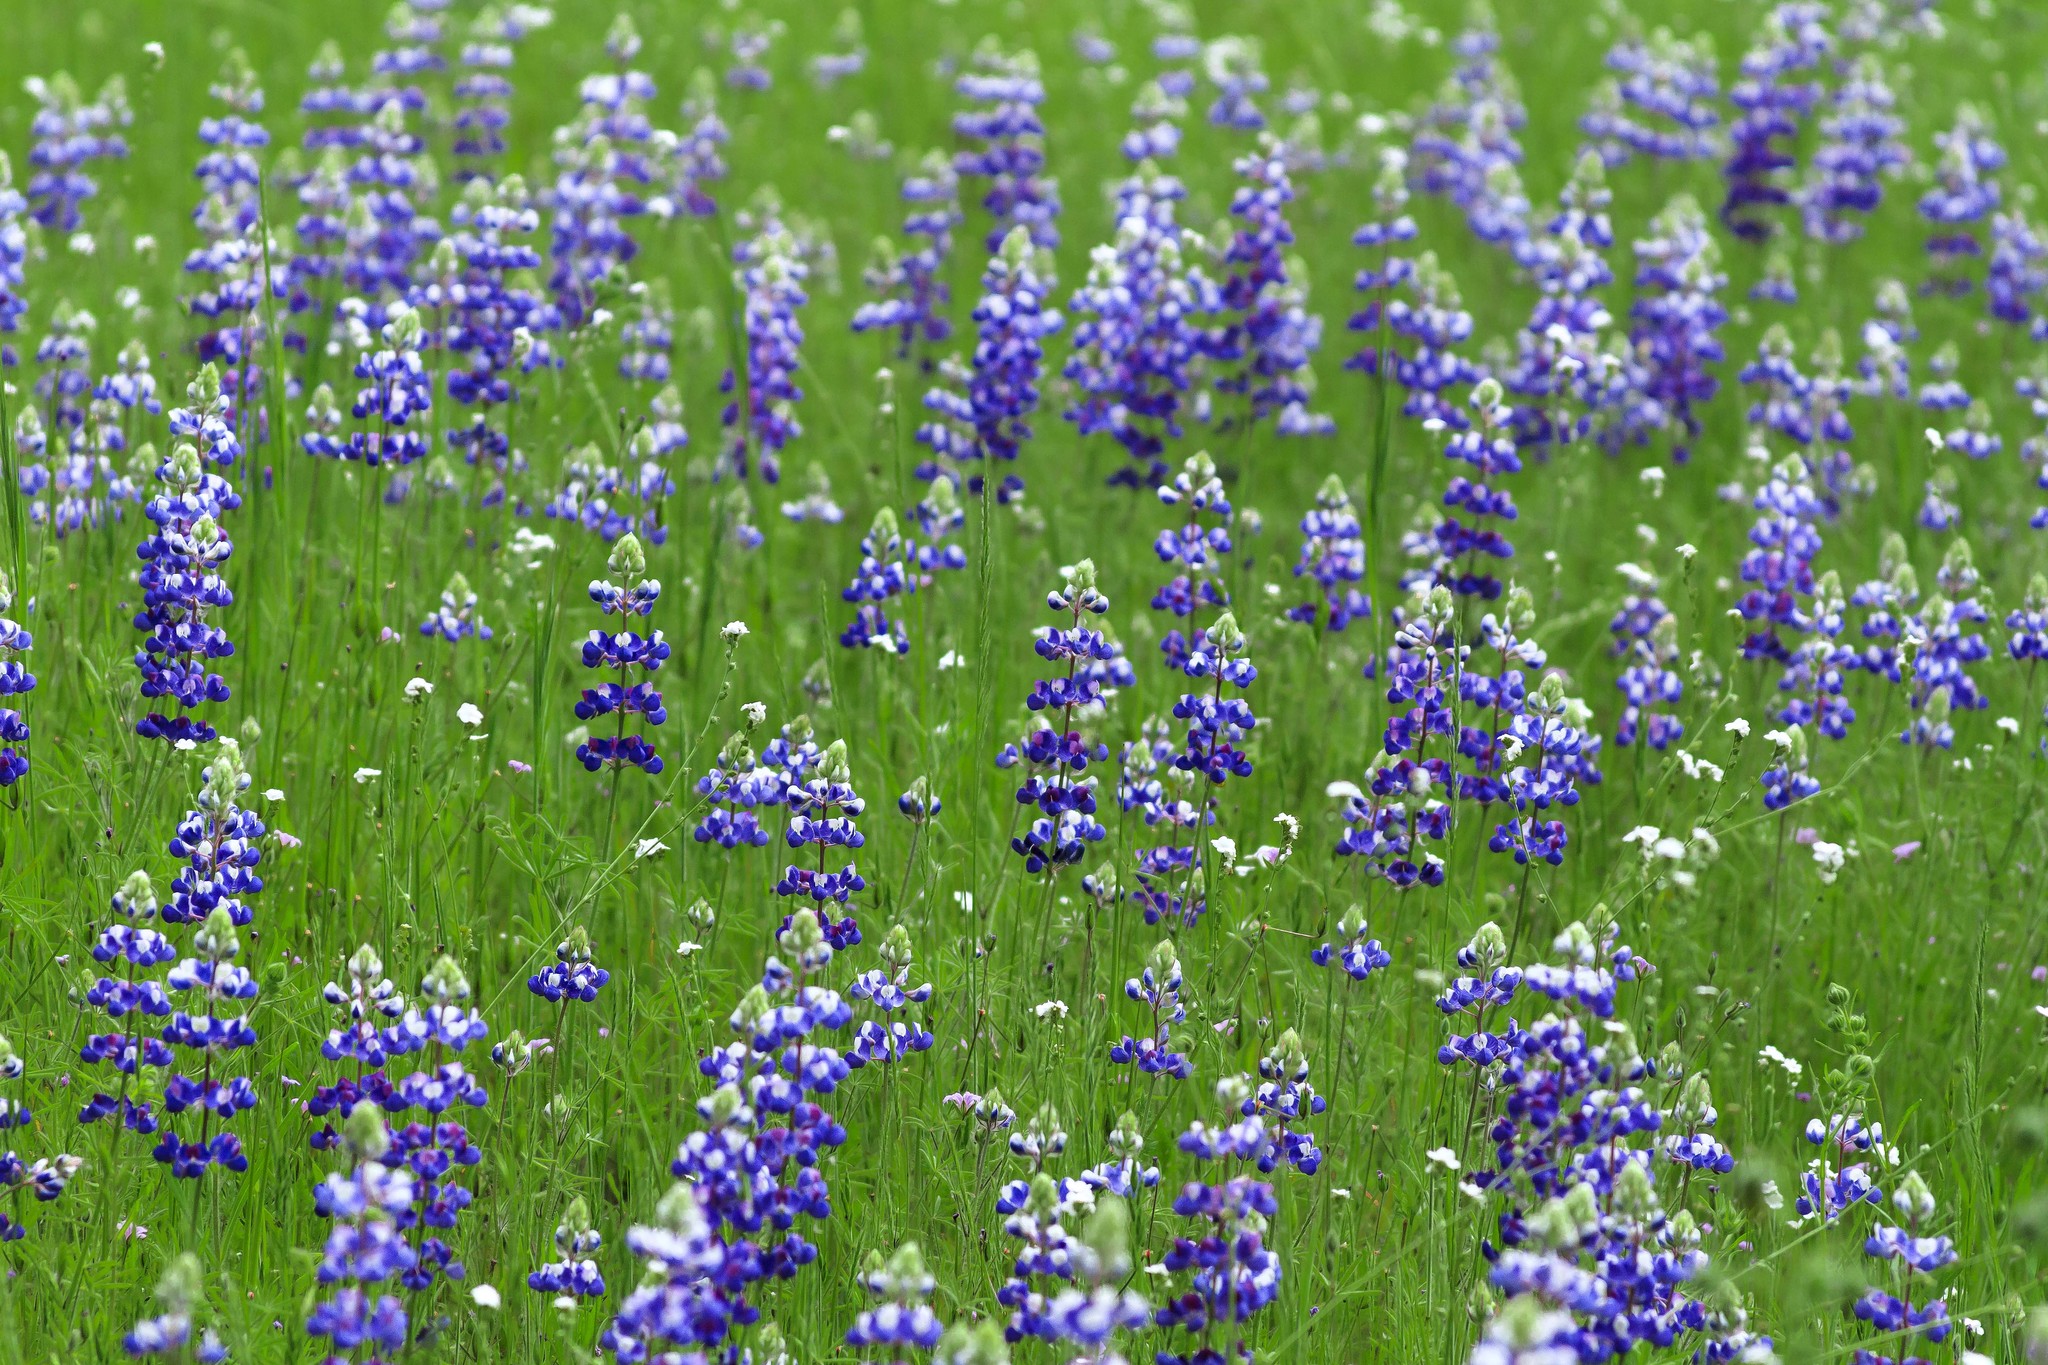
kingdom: Plantae
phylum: Tracheophyta
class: Magnoliopsida
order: Fabales
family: Fabaceae
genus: Lupinus
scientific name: Lupinus nanus
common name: Orean blue lupin
